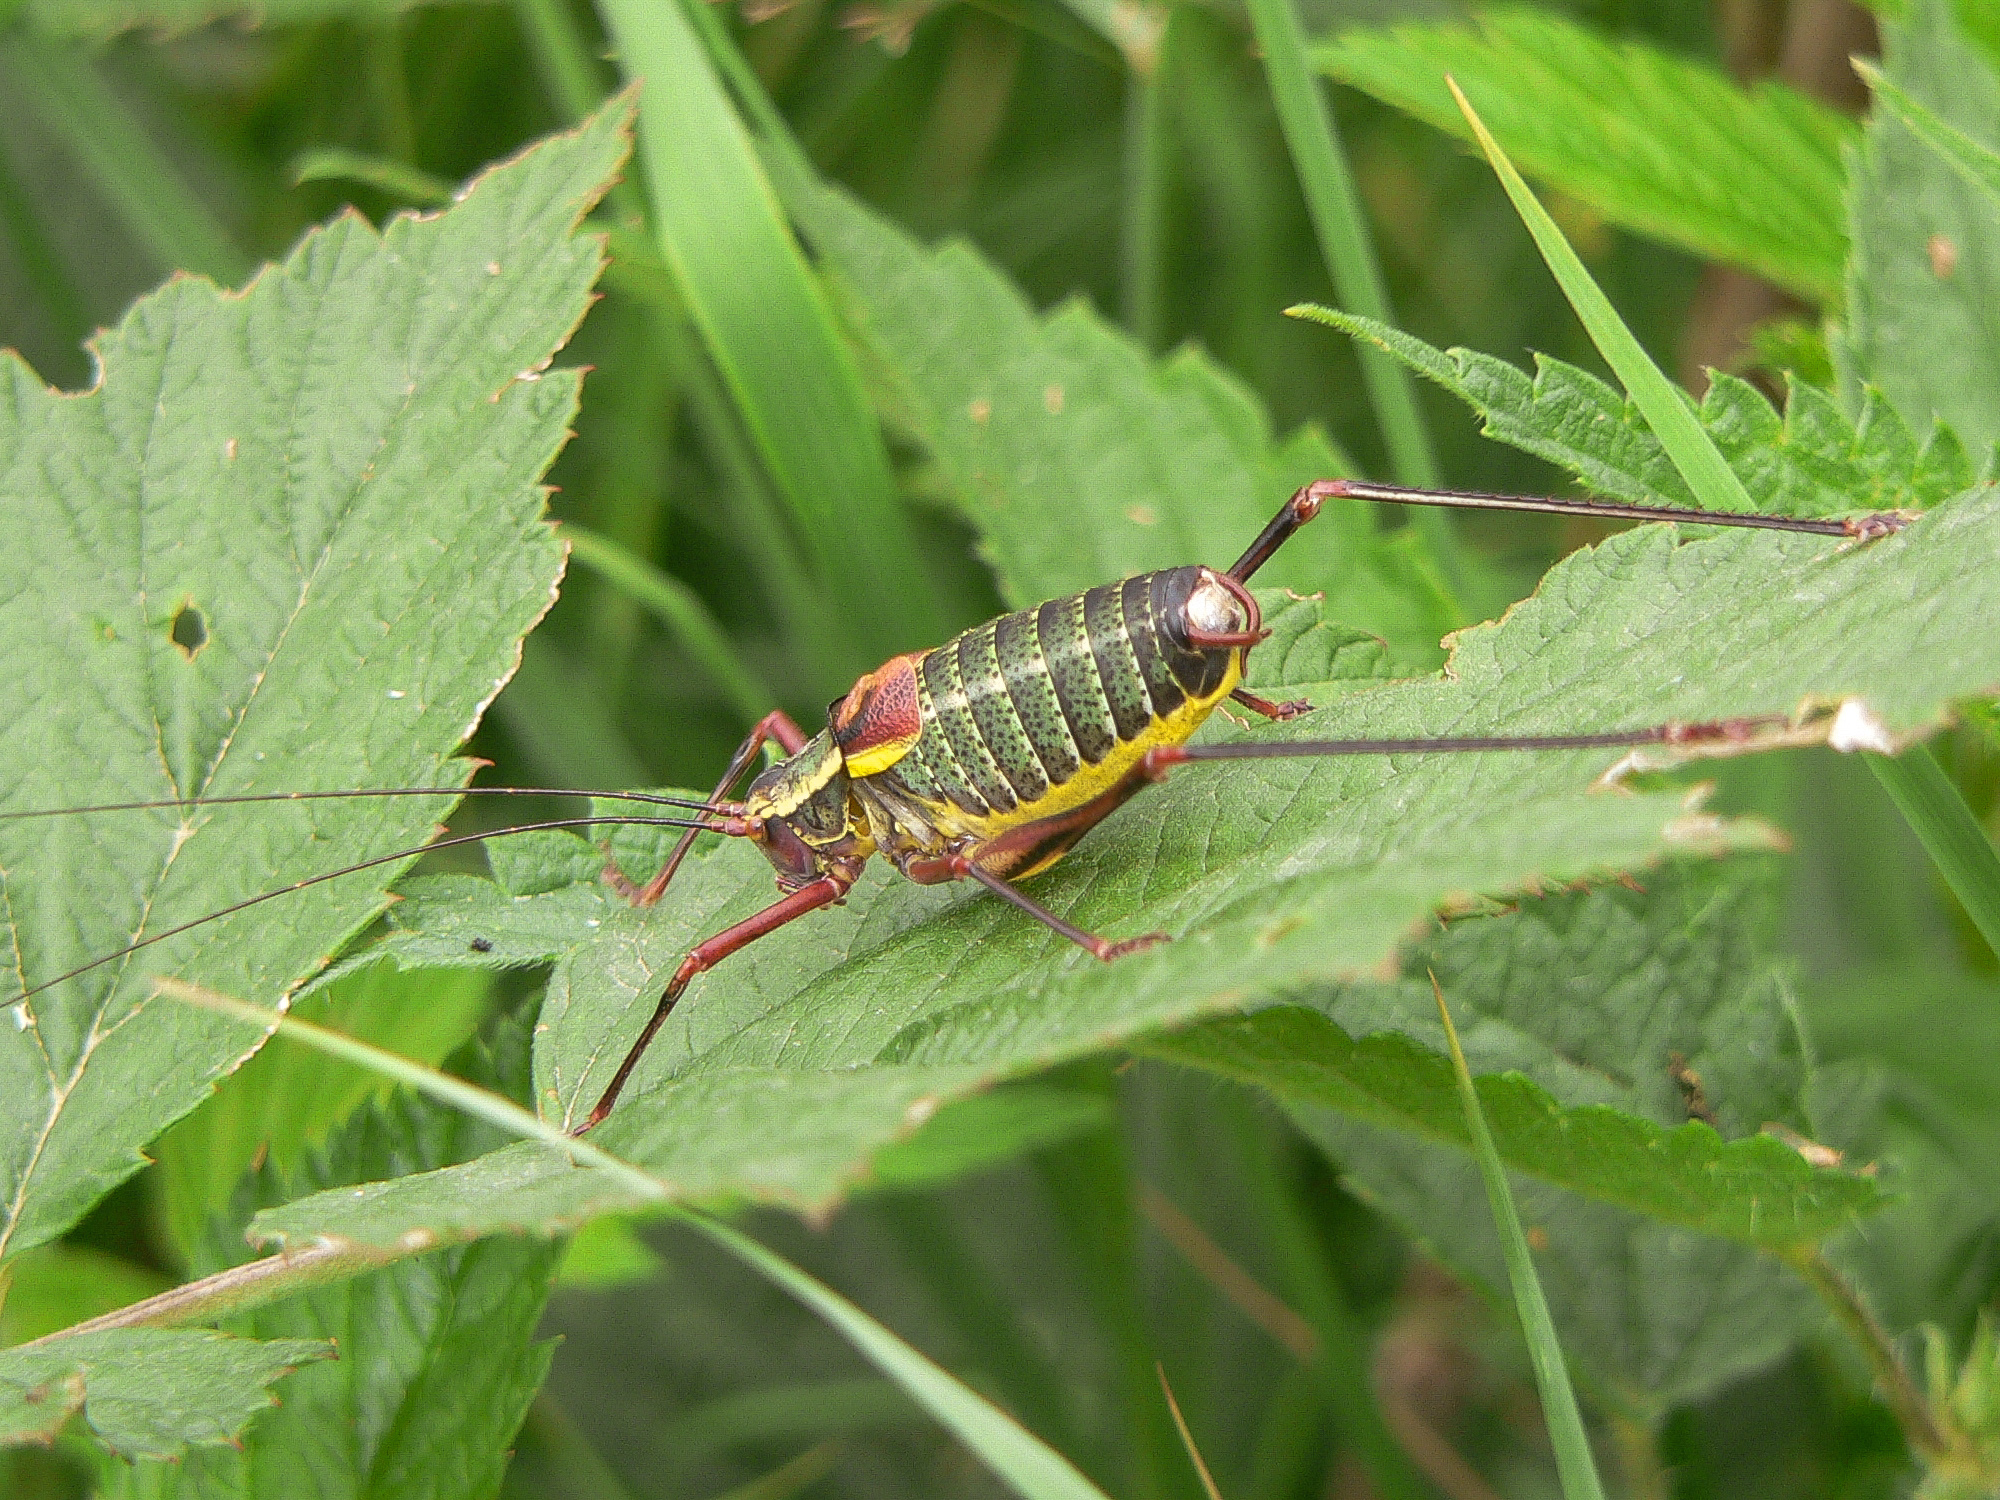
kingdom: Animalia
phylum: Arthropoda
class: Insecta
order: Orthoptera
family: Tettigoniidae
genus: Barbitistes
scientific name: Barbitistes obtusus
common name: Alpine saw bush-cricket
